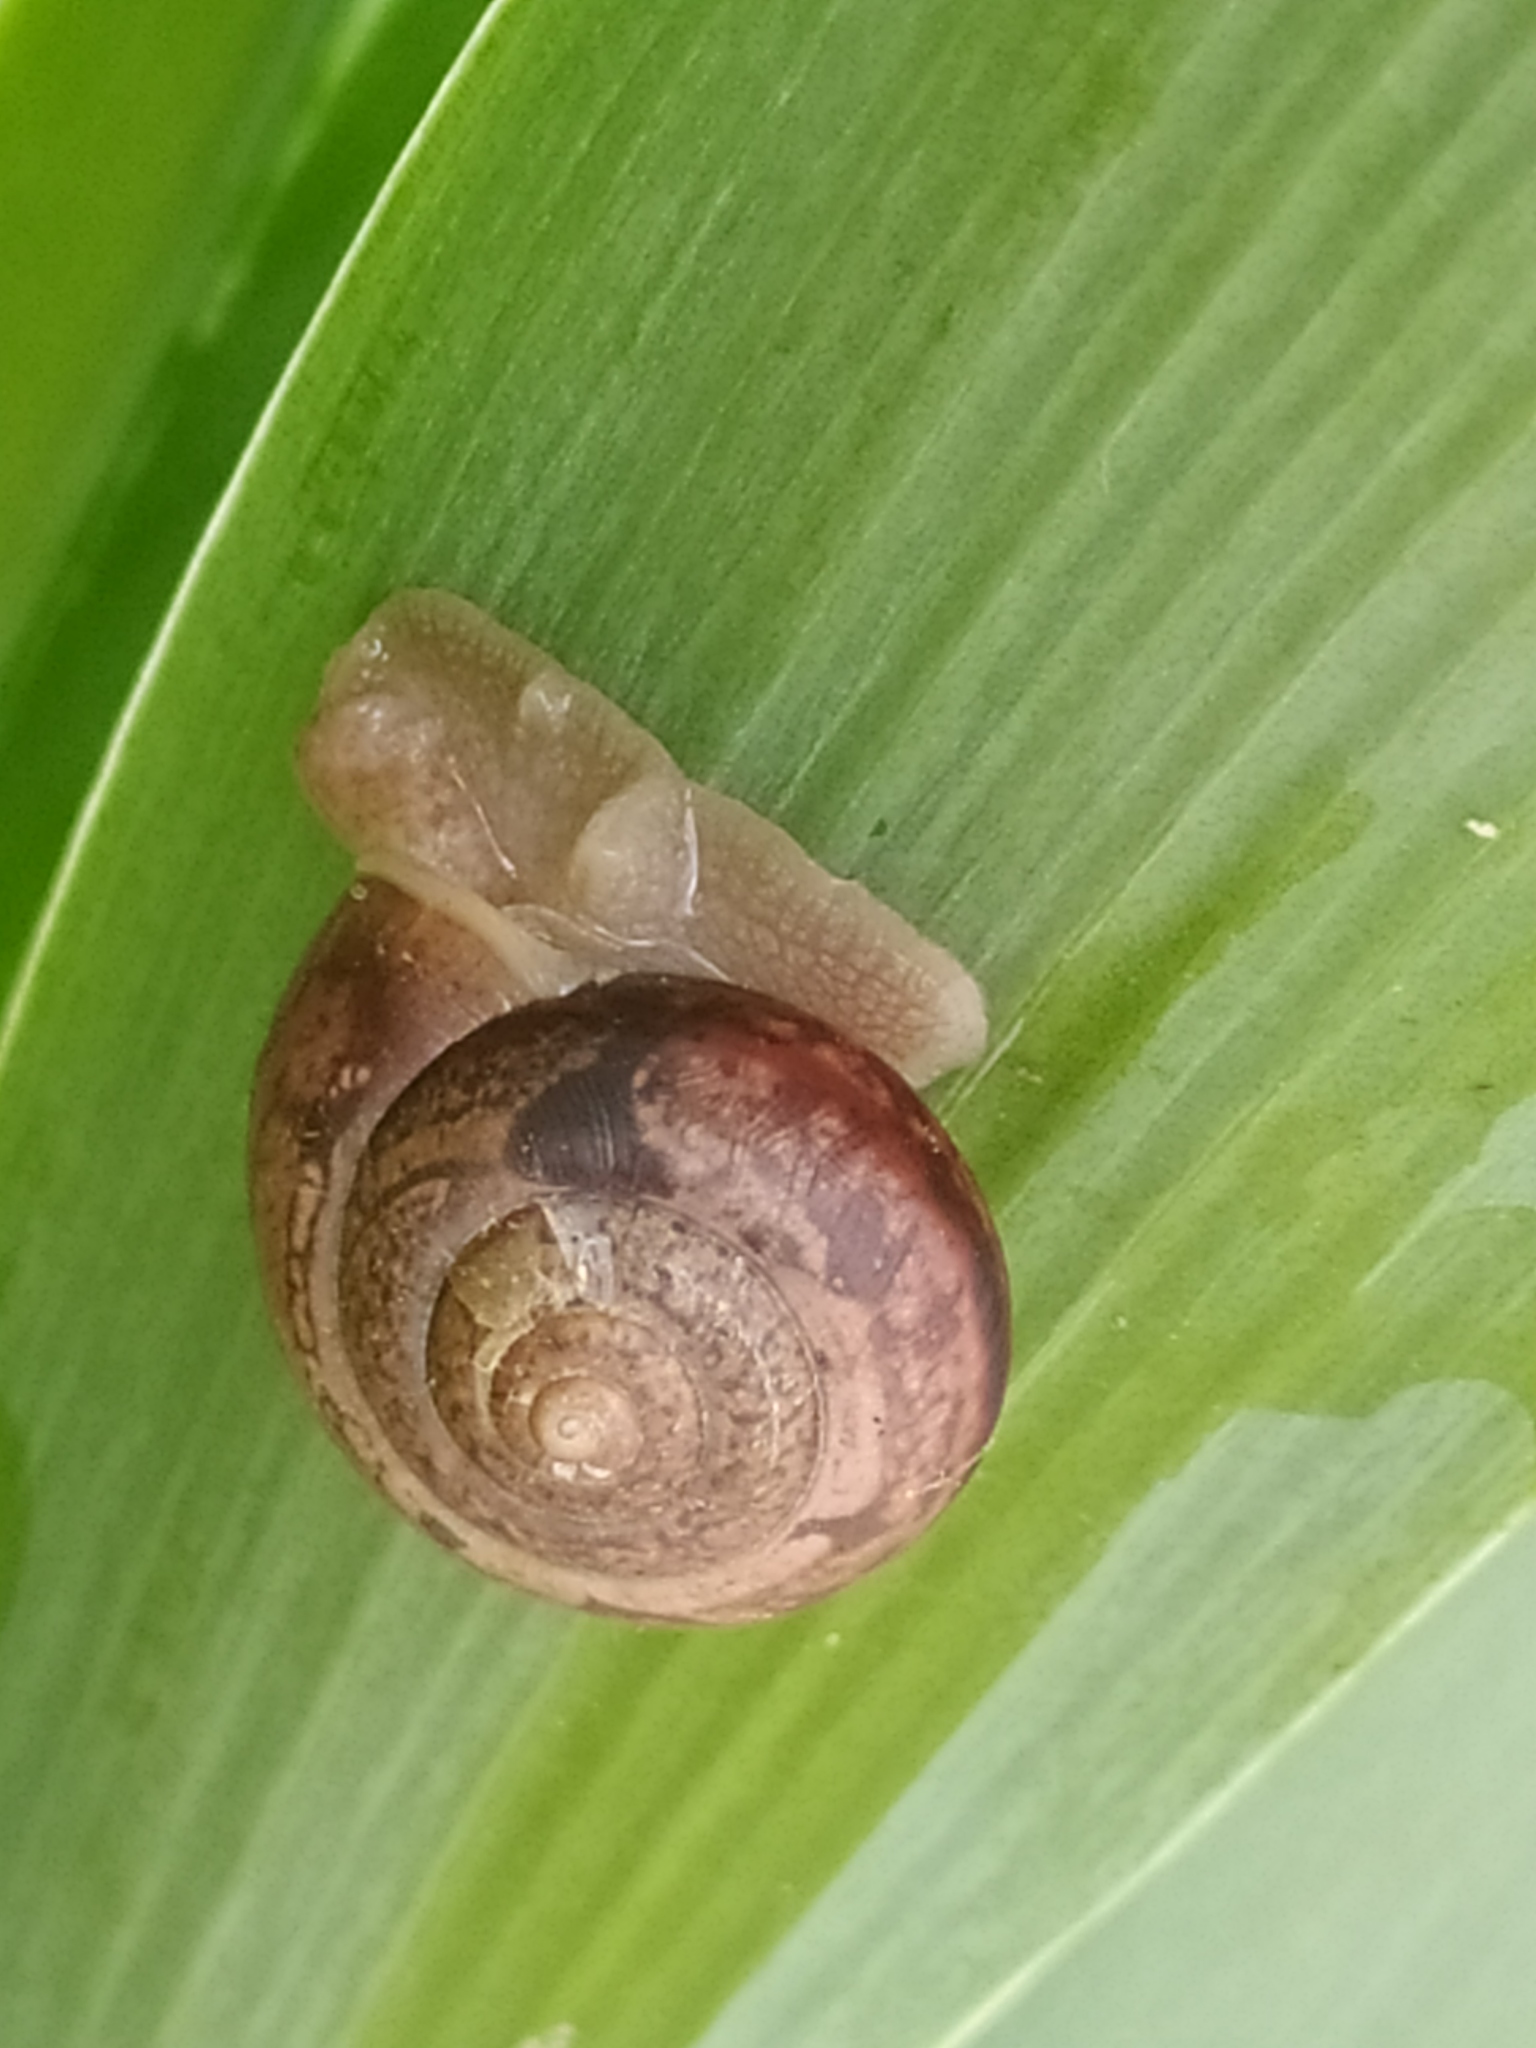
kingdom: Animalia
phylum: Mollusca
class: Gastropoda
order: Stylommatophora
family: Camaenidae
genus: Fruticicola
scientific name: Fruticicola fruticum
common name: Bush snail
